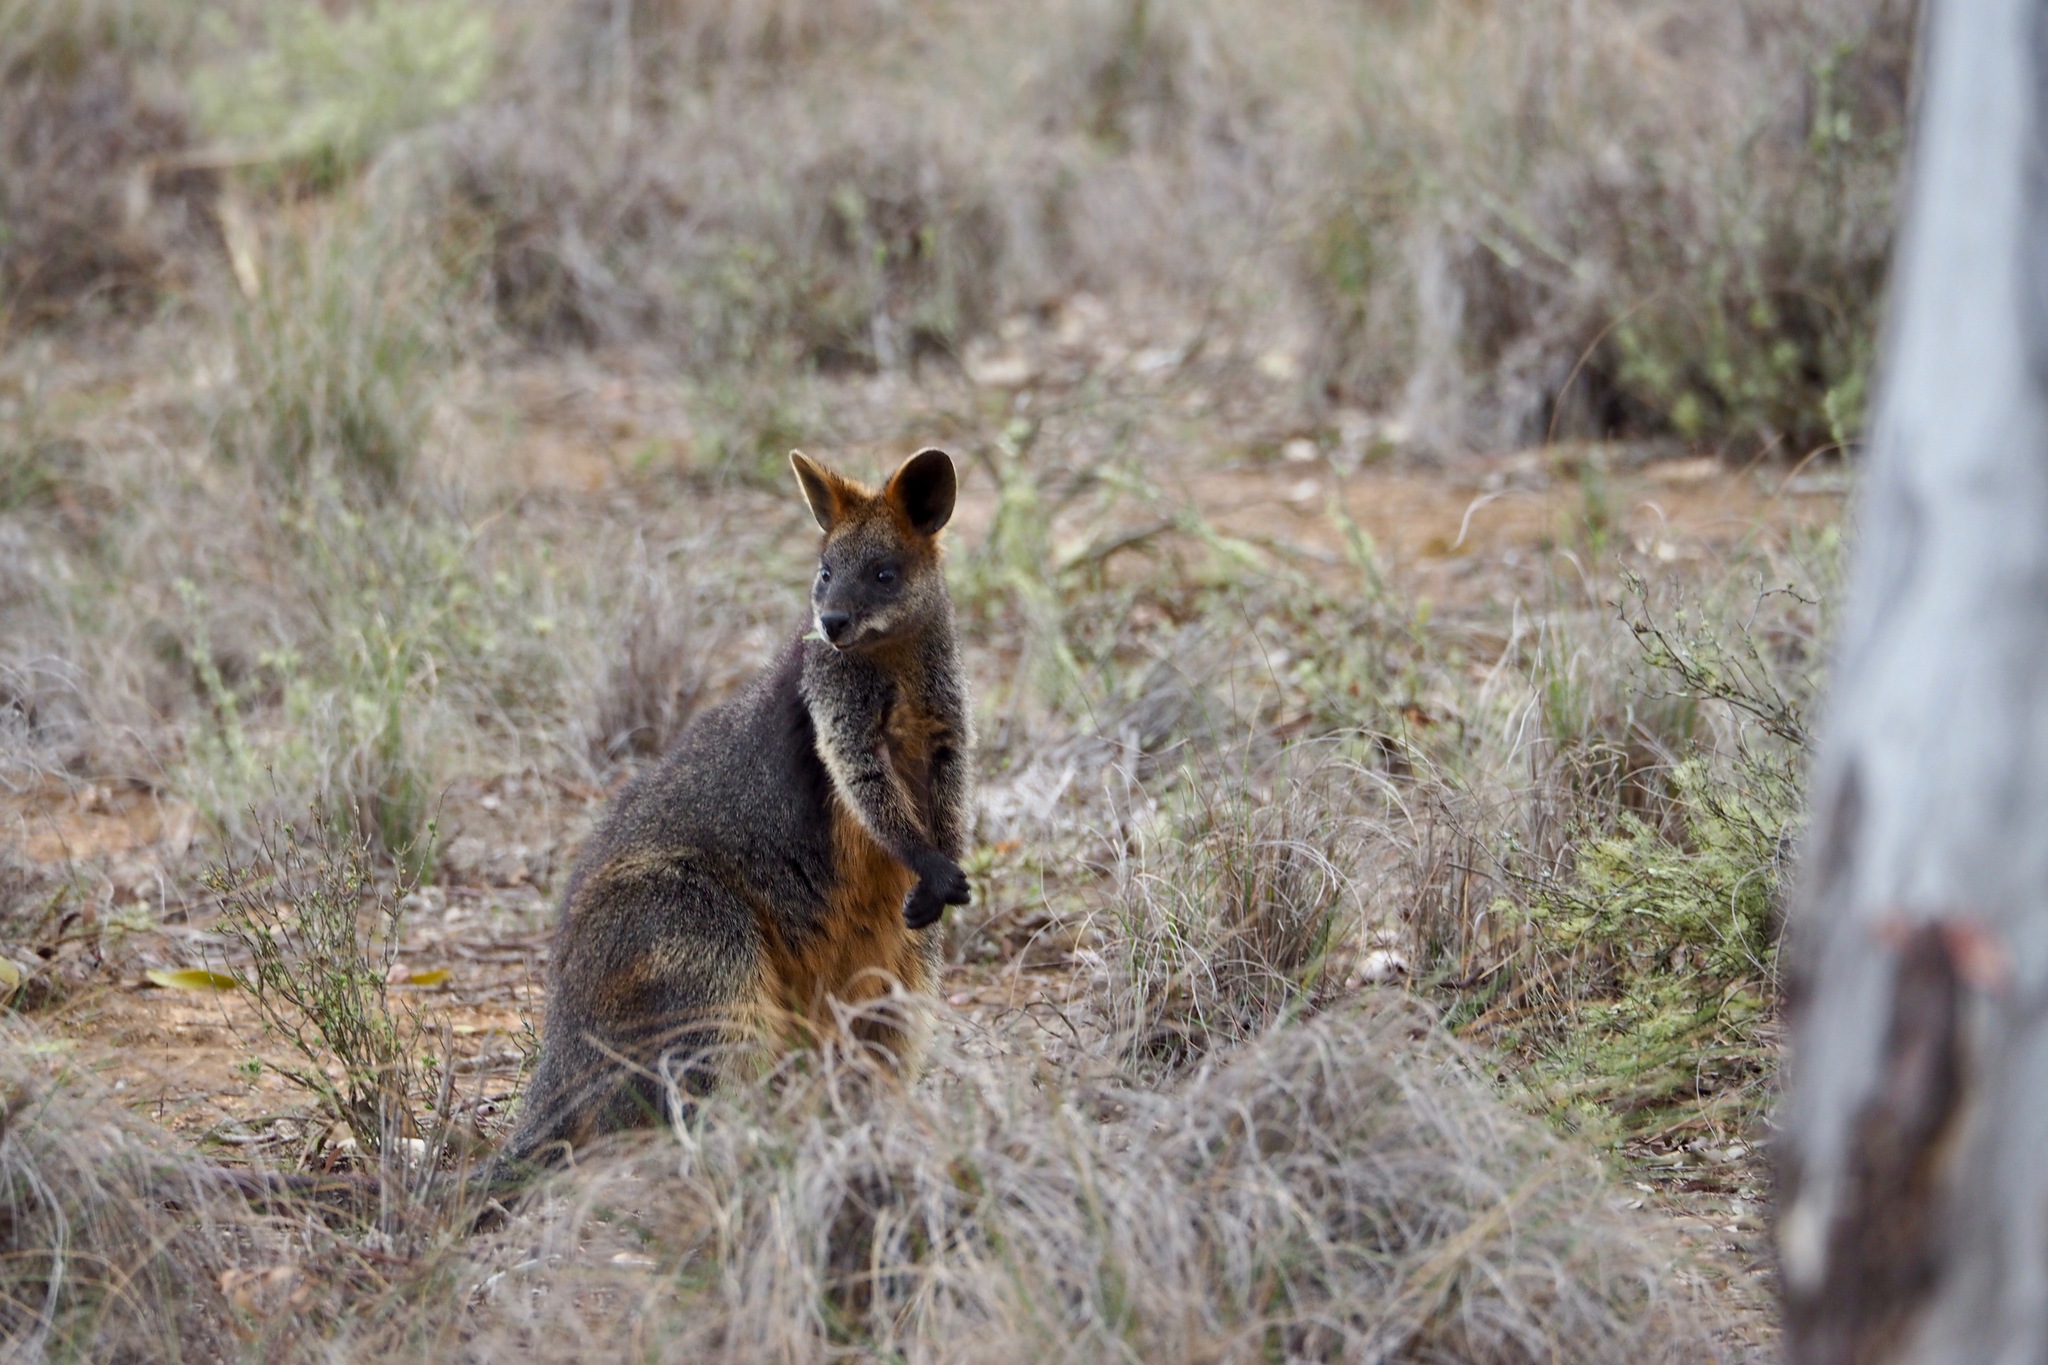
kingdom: Animalia
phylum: Chordata
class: Mammalia
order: Diprotodontia
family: Macropodidae
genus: Wallabia
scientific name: Wallabia bicolor
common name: Swamp wallaby
